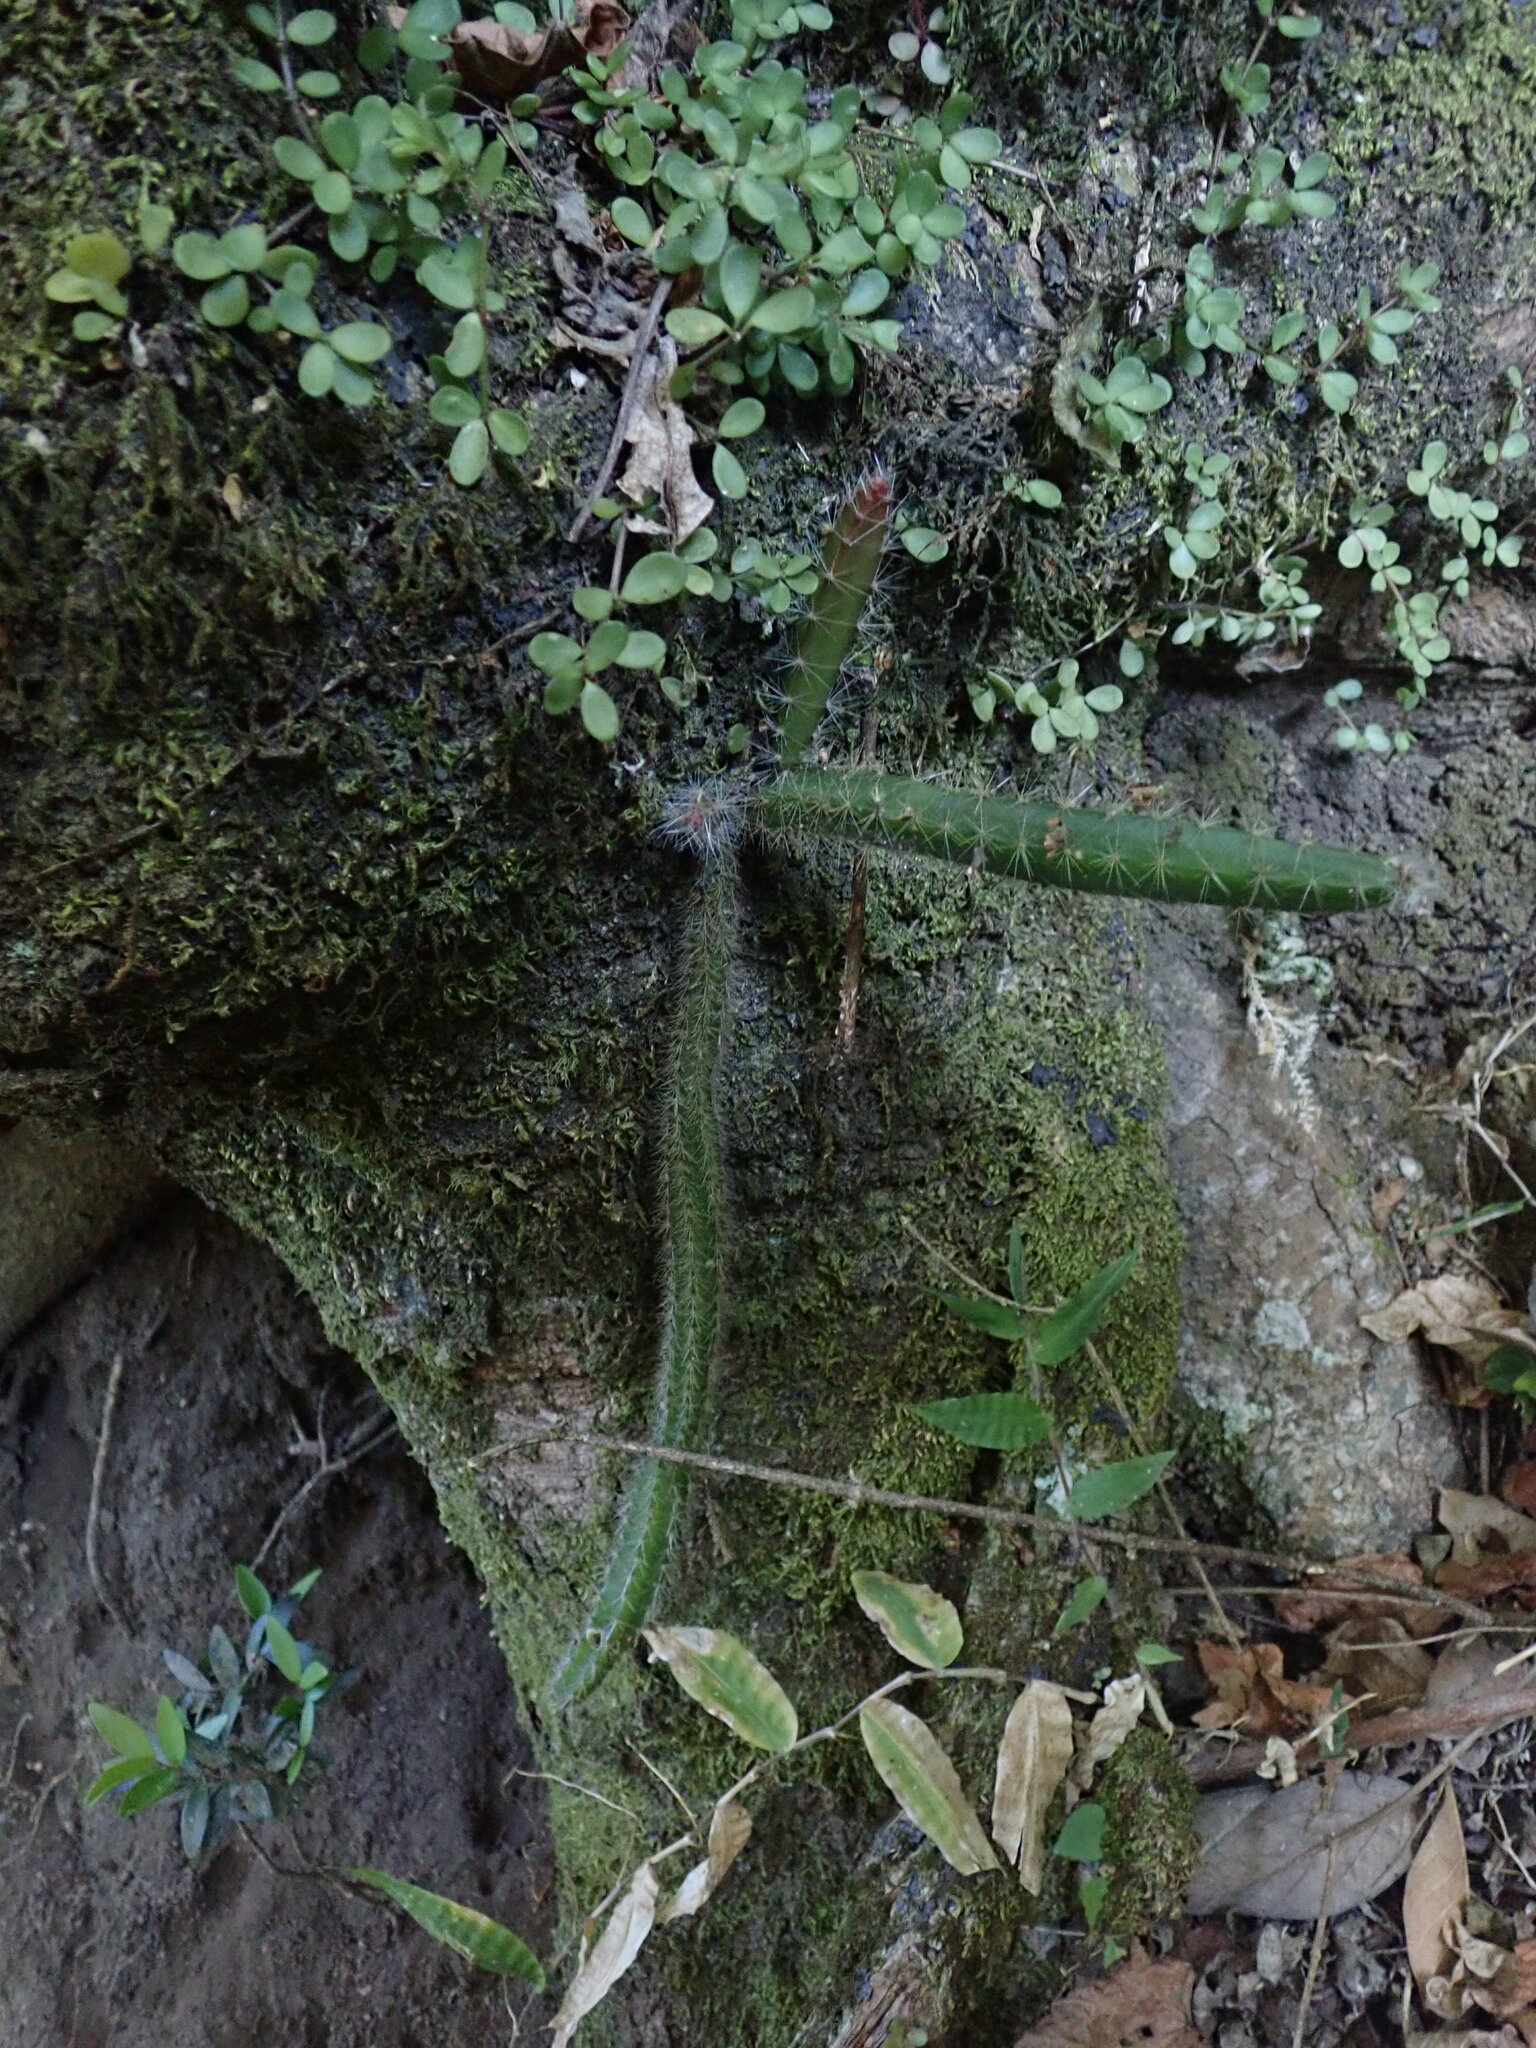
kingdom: Plantae
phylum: Tracheophyta
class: Magnoliopsida
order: Caryophyllales
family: Cactaceae
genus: Acanthocereus
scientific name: Acanthocereus hirschtianus
